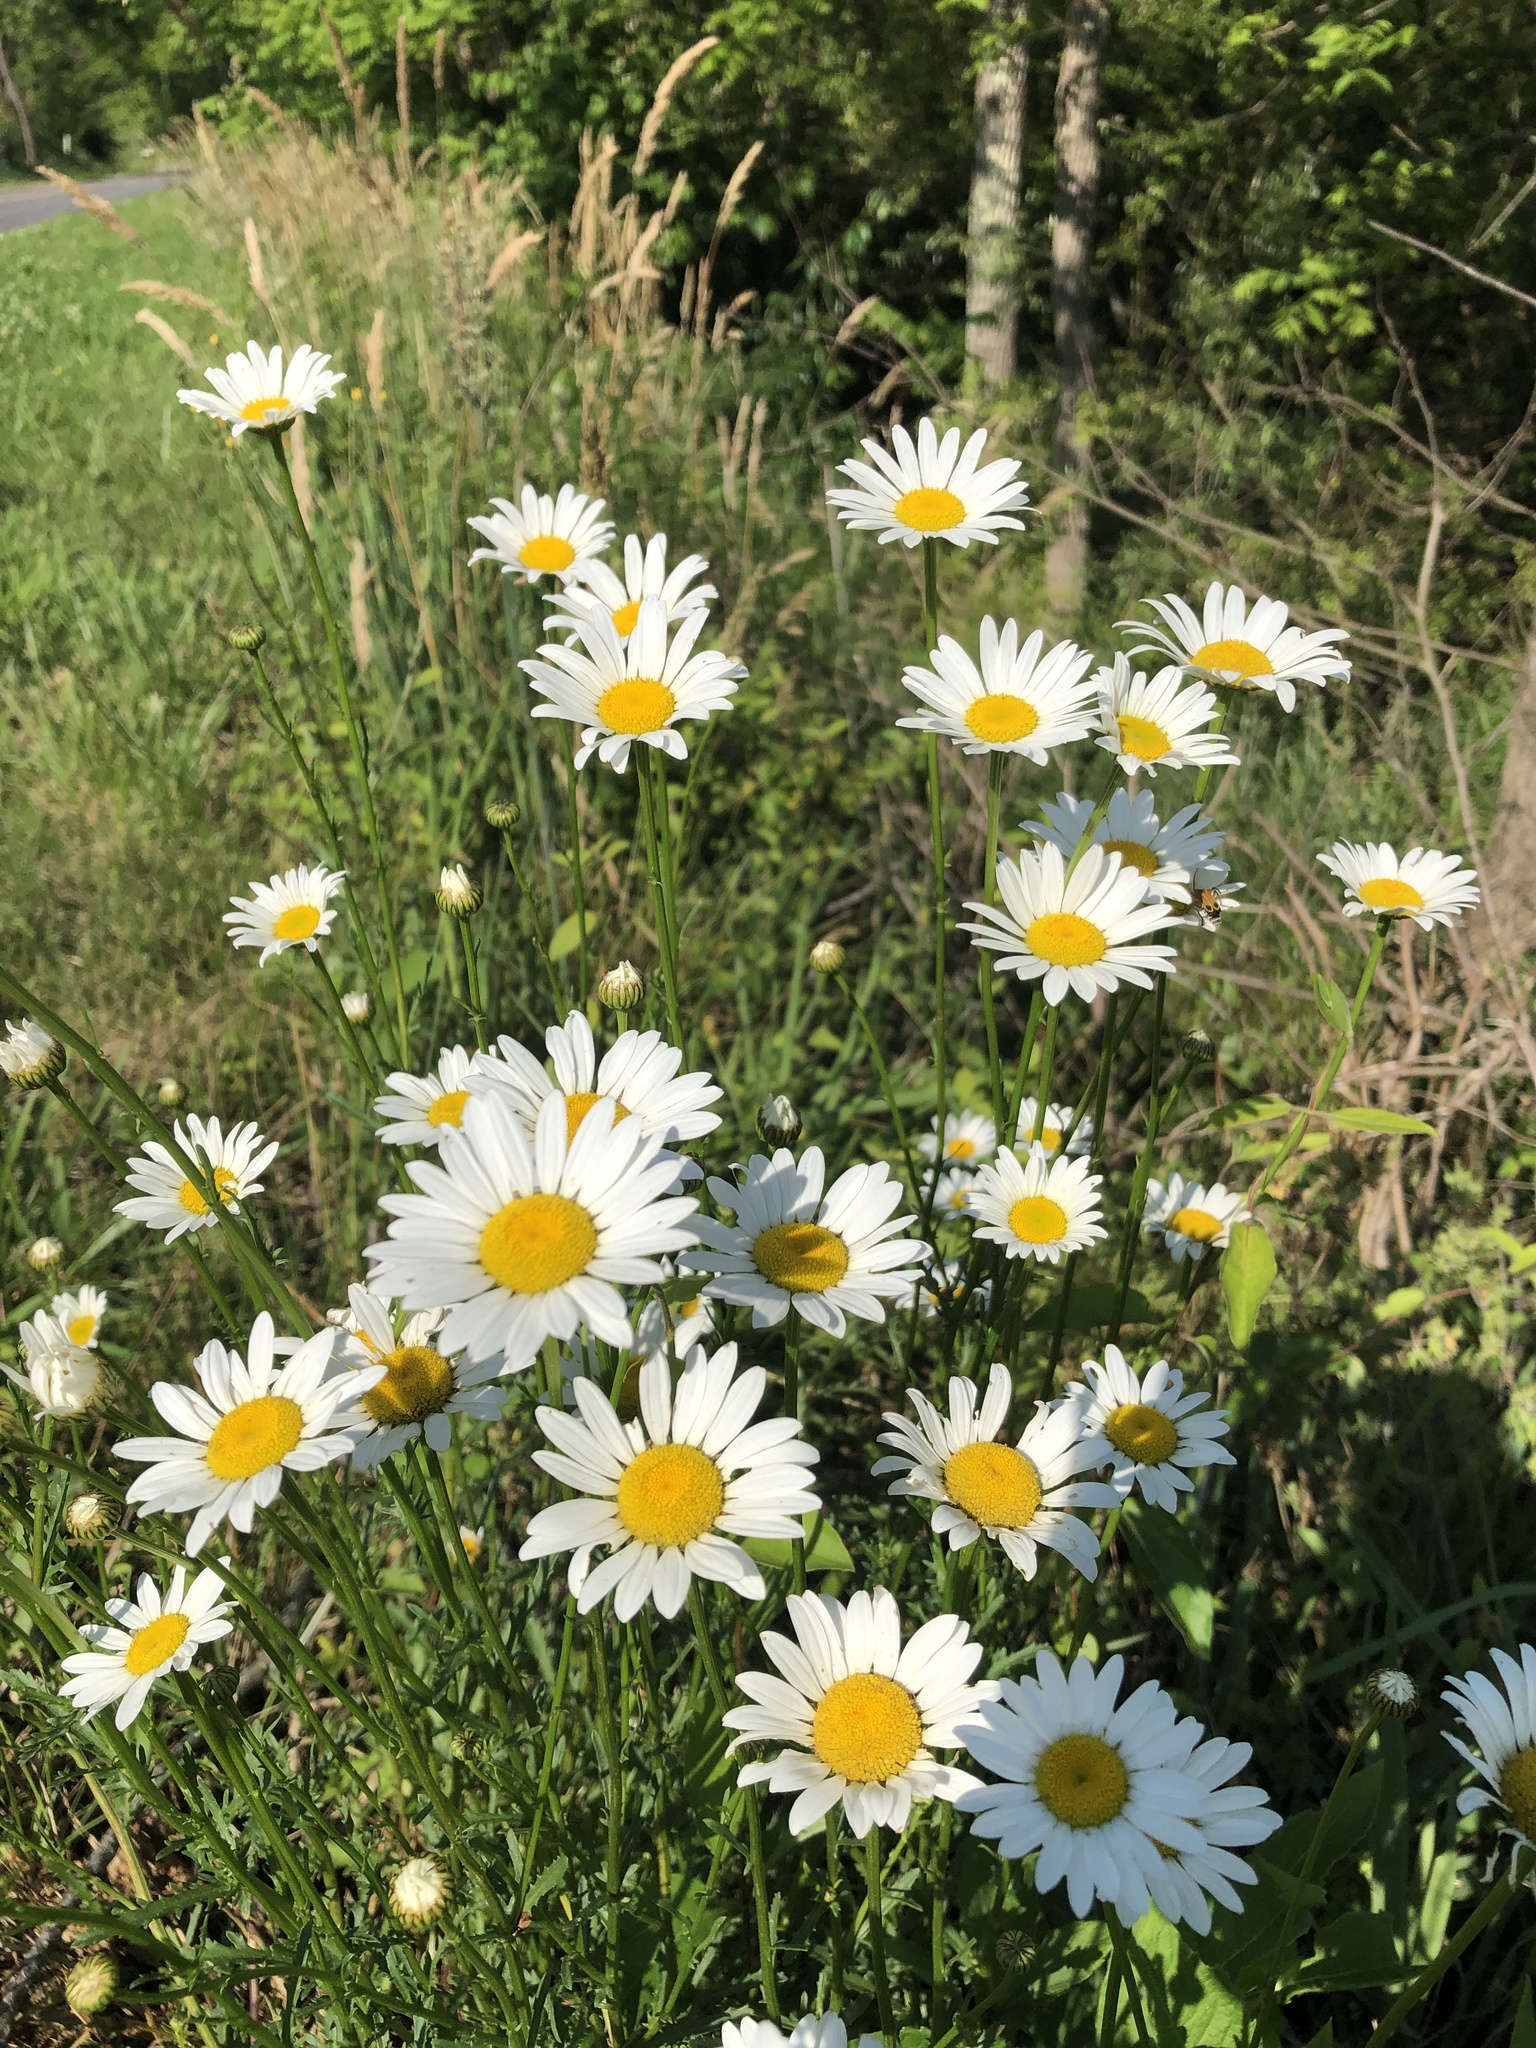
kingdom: Plantae
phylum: Tracheophyta
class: Magnoliopsida
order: Asterales
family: Asteraceae
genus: Leucanthemum
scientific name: Leucanthemum vulgare
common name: Oxeye daisy
